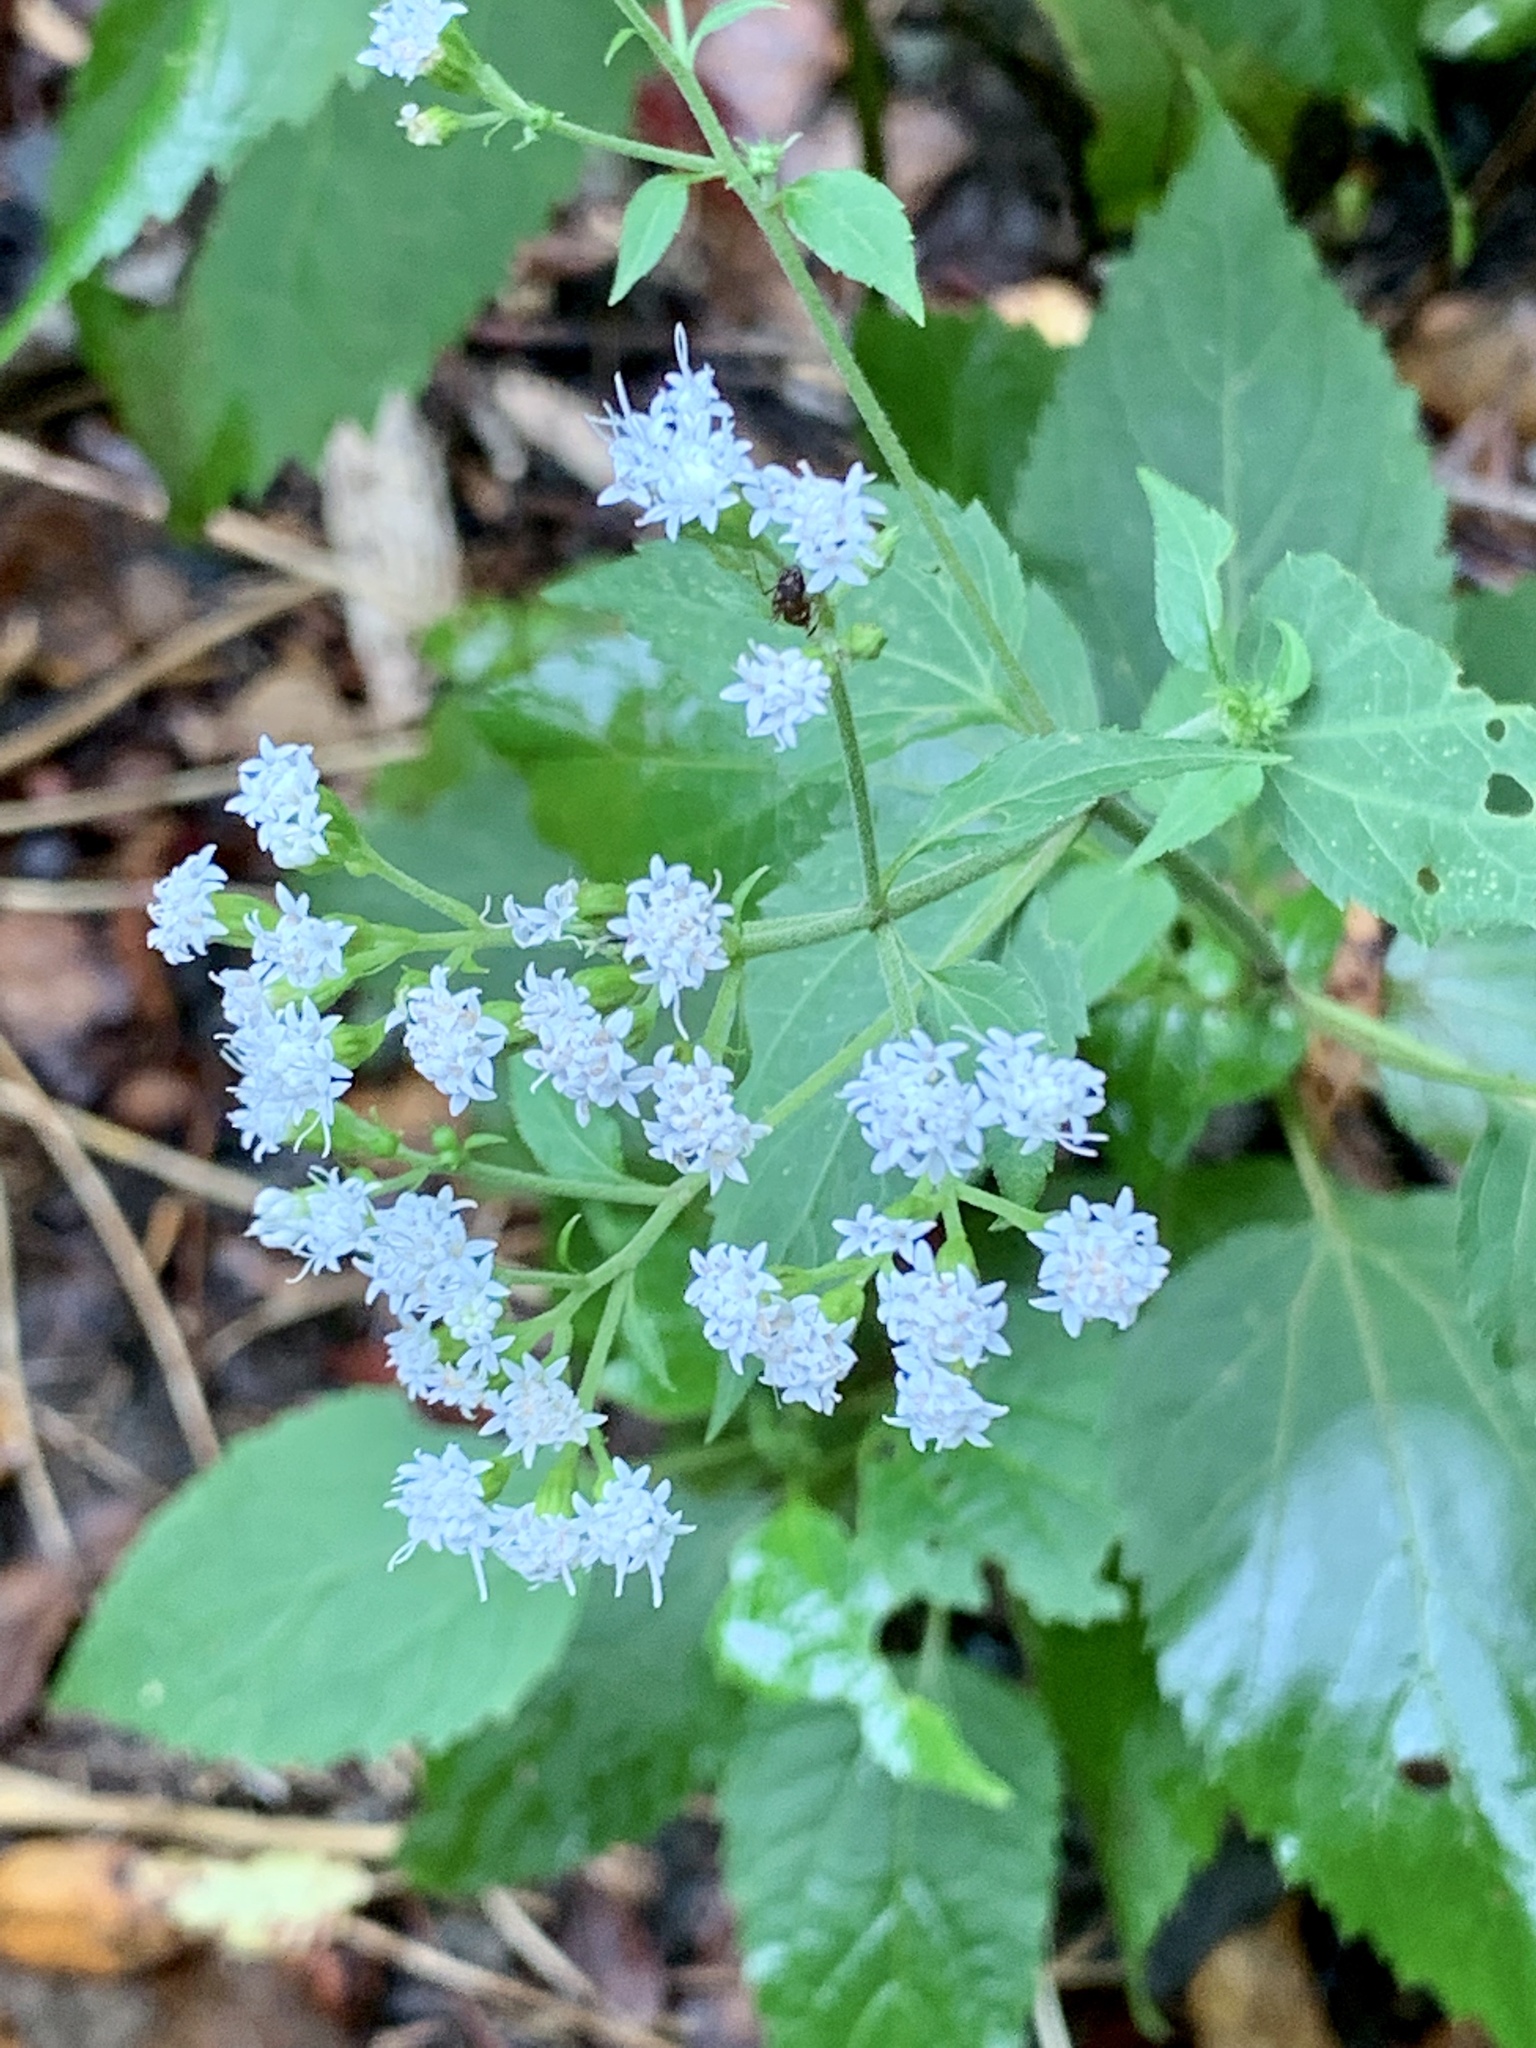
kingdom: Plantae
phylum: Tracheophyta
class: Magnoliopsida
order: Asterales
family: Asteraceae
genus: Ageratina
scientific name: Ageratina altissima
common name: White snakeroot
